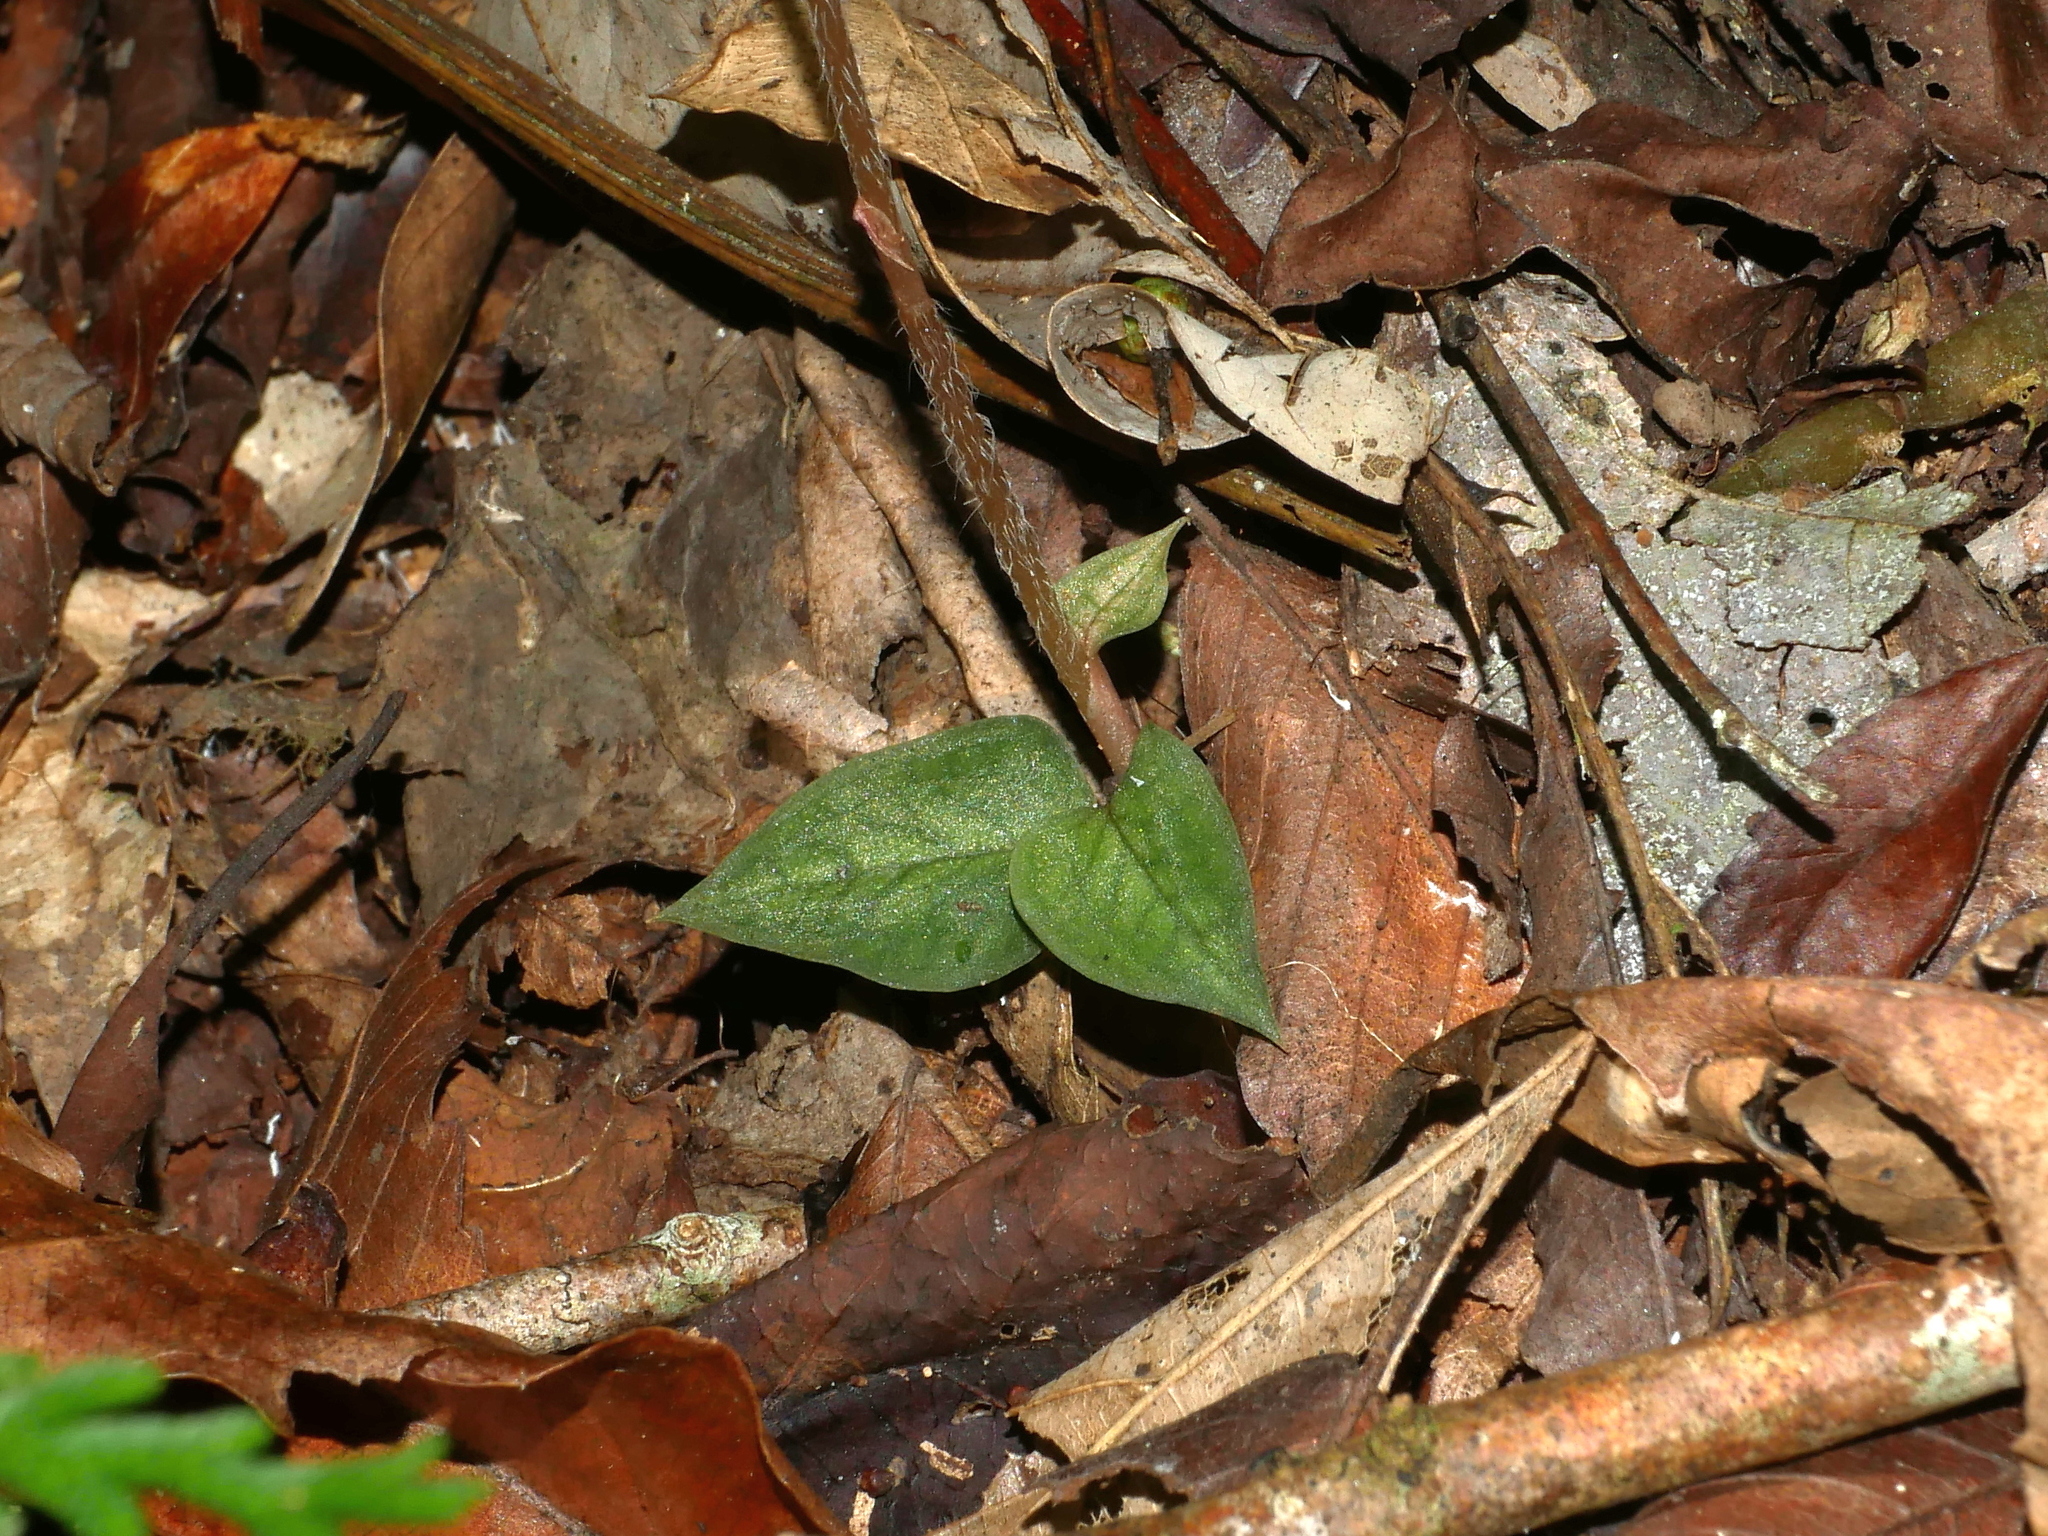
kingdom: Plantae
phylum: Tracheophyta
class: Liliopsida
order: Asparagales
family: Orchidaceae
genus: Cheirostylis
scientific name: Cheirostylis clibborndyeri
